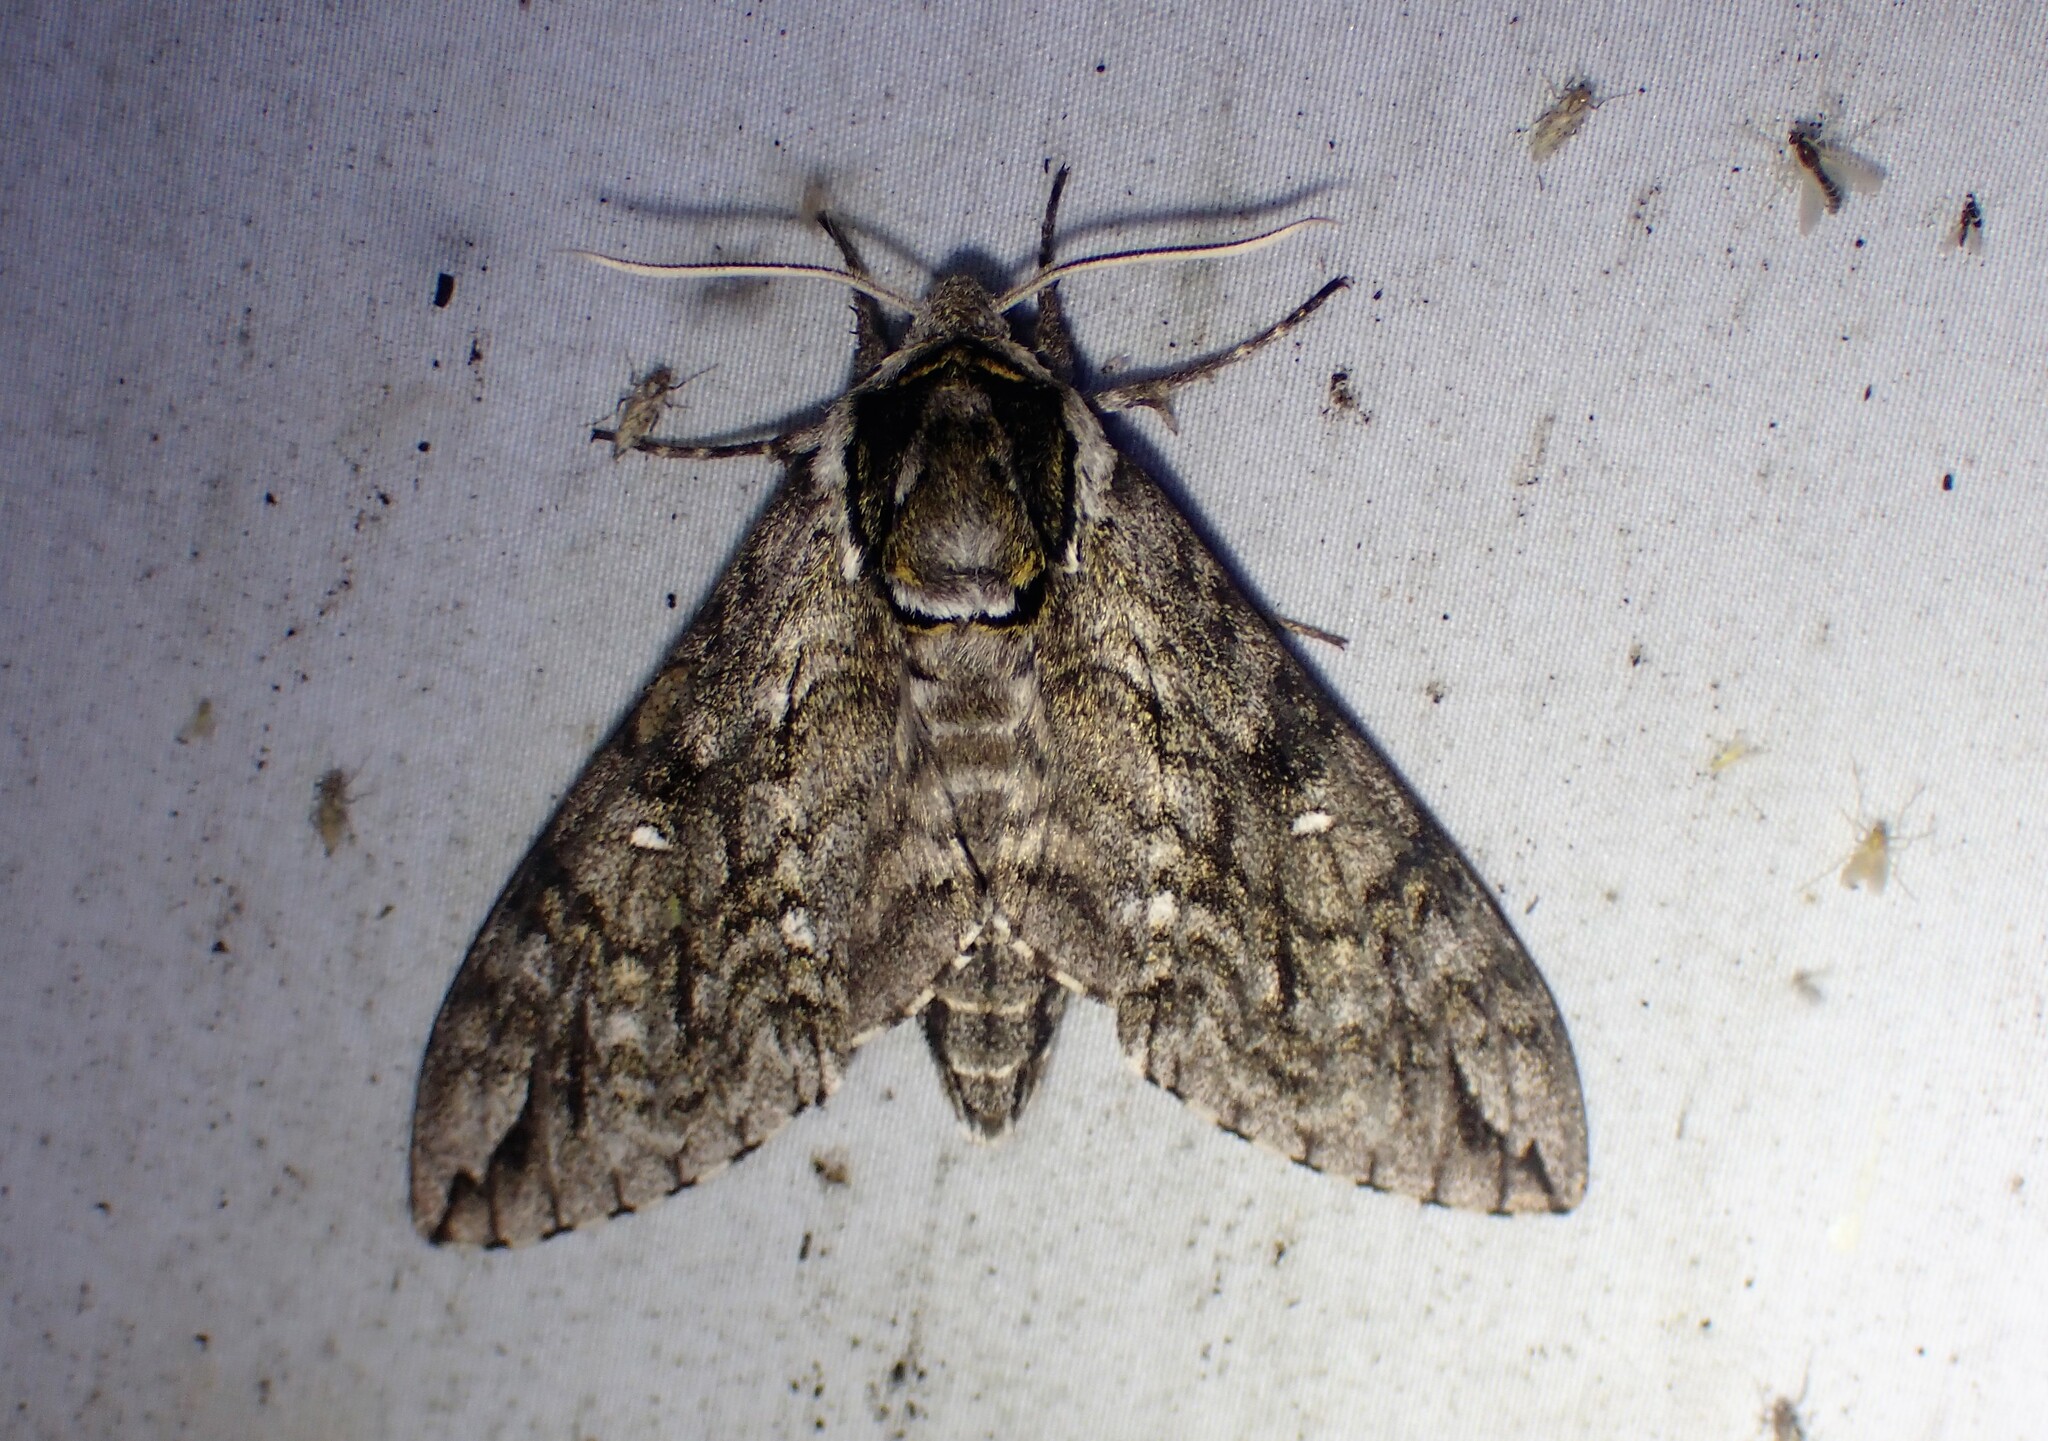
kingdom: Animalia
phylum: Arthropoda
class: Insecta
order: Lepidoptera
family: Sphingidae
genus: Ceratomia
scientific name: Ceratomia undulosa
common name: Waved sphinx
